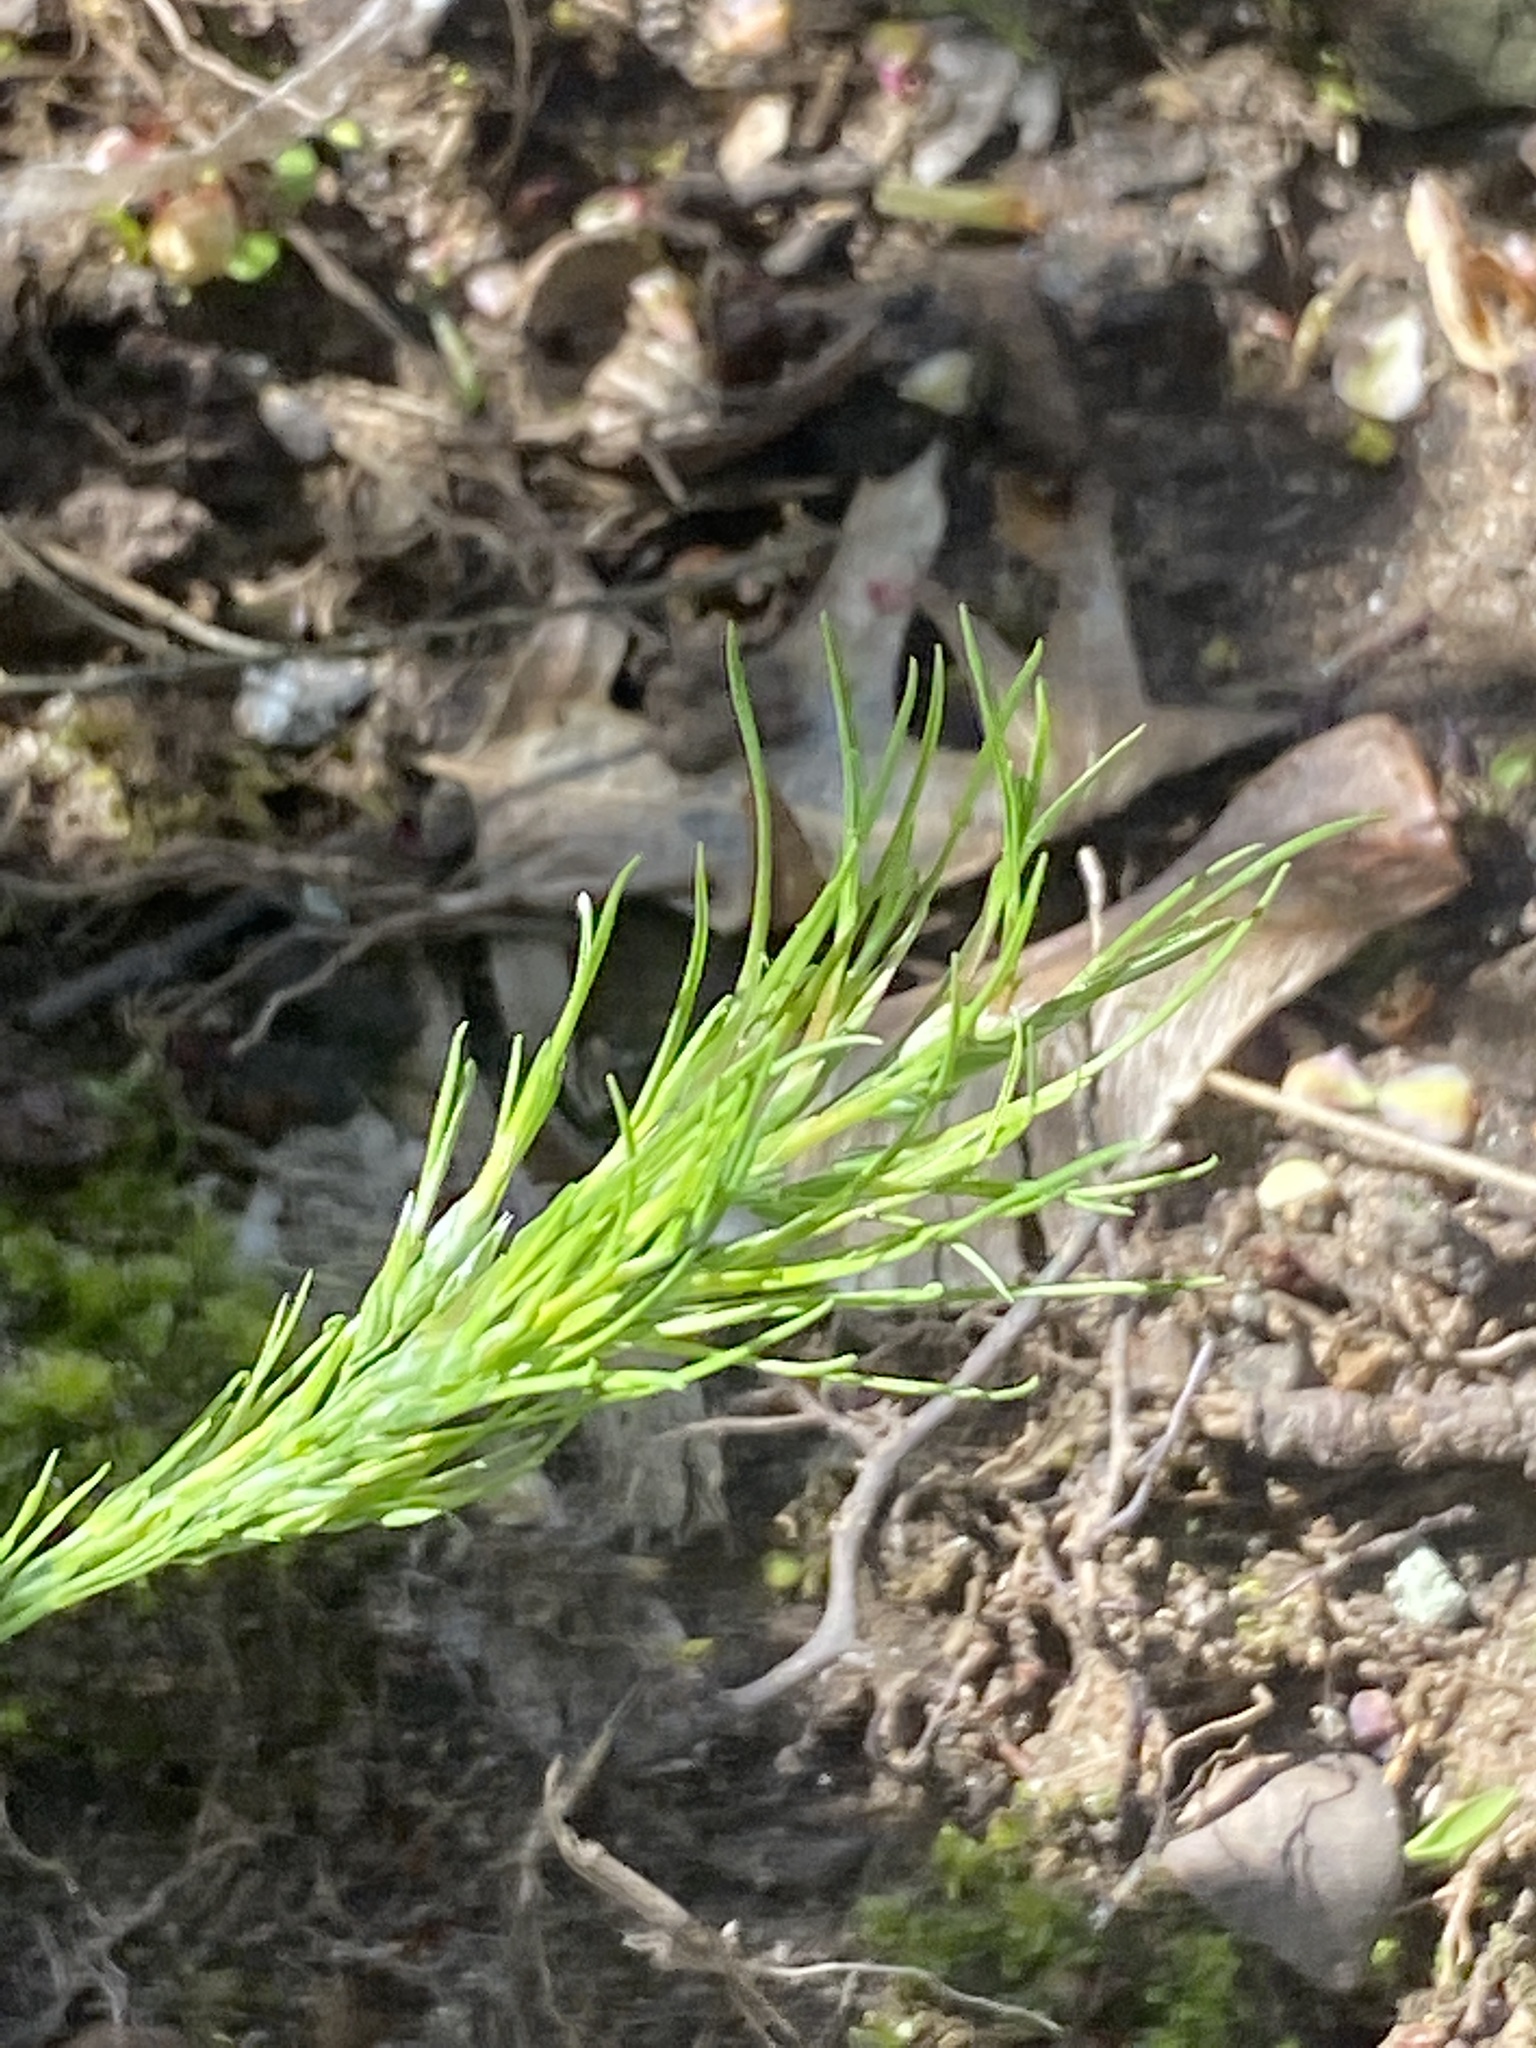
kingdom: Plantae
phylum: Tracheophyta
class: Liliopsida
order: Poales
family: Poaceae
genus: Poa
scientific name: Poa bulbosa
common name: Bulbous bluegrass
